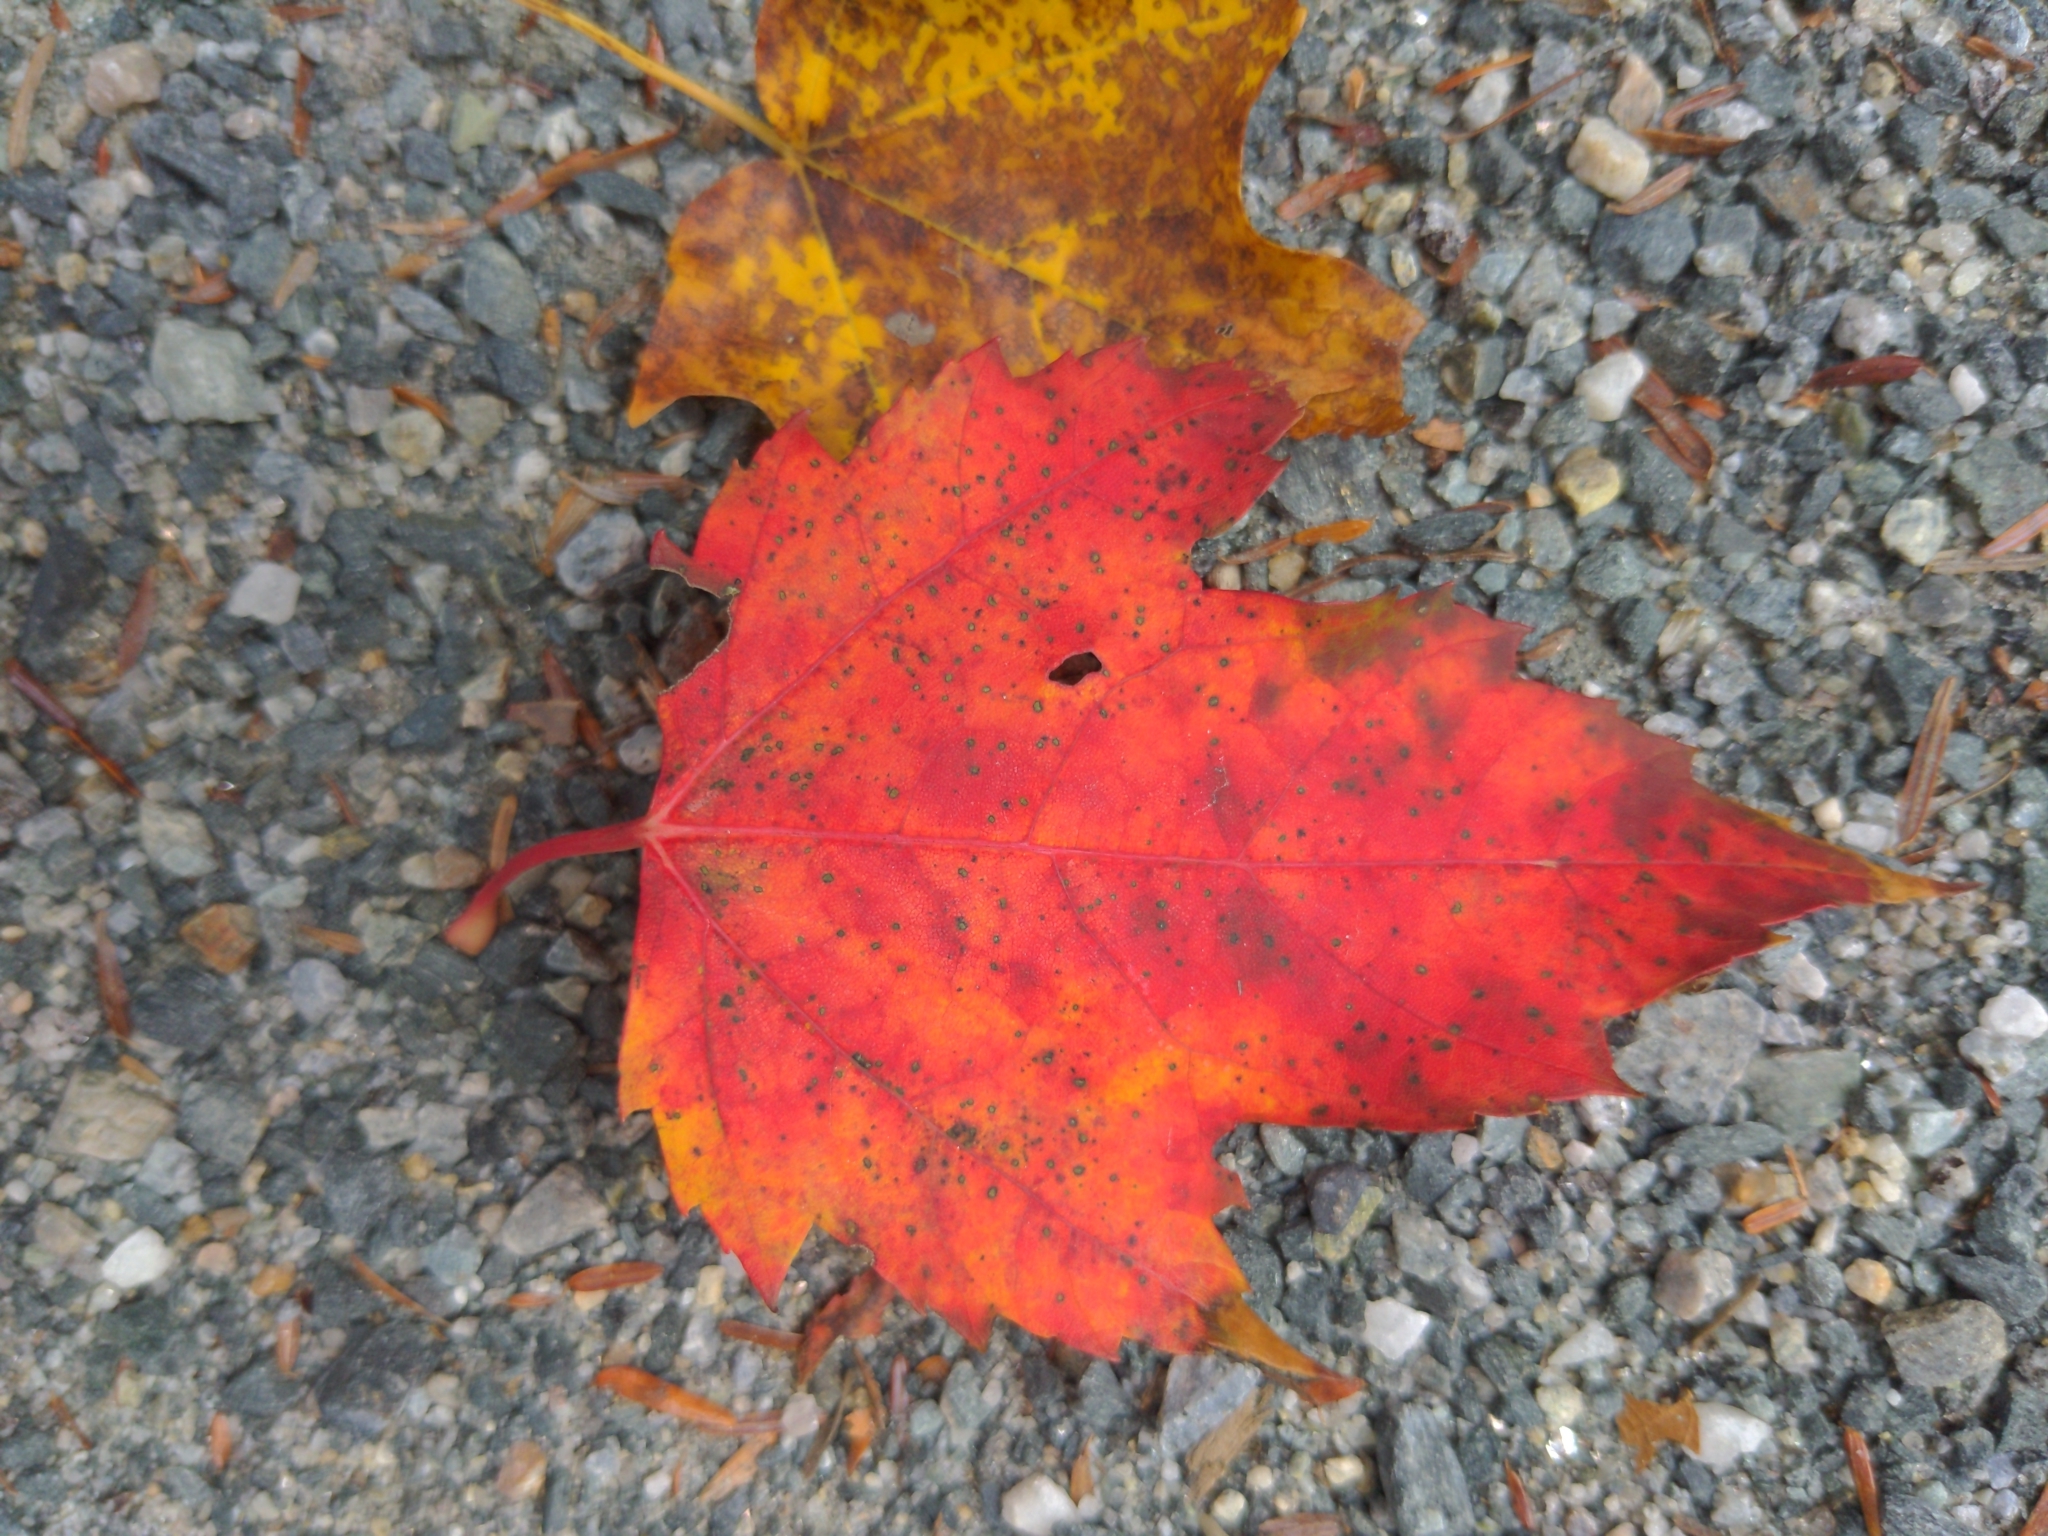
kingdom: Plantae
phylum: Tracheophyta
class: Magnoliopsida
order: Sapindales
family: Sapindaceae
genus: Acer
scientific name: Acer rubrum
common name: Red maple
